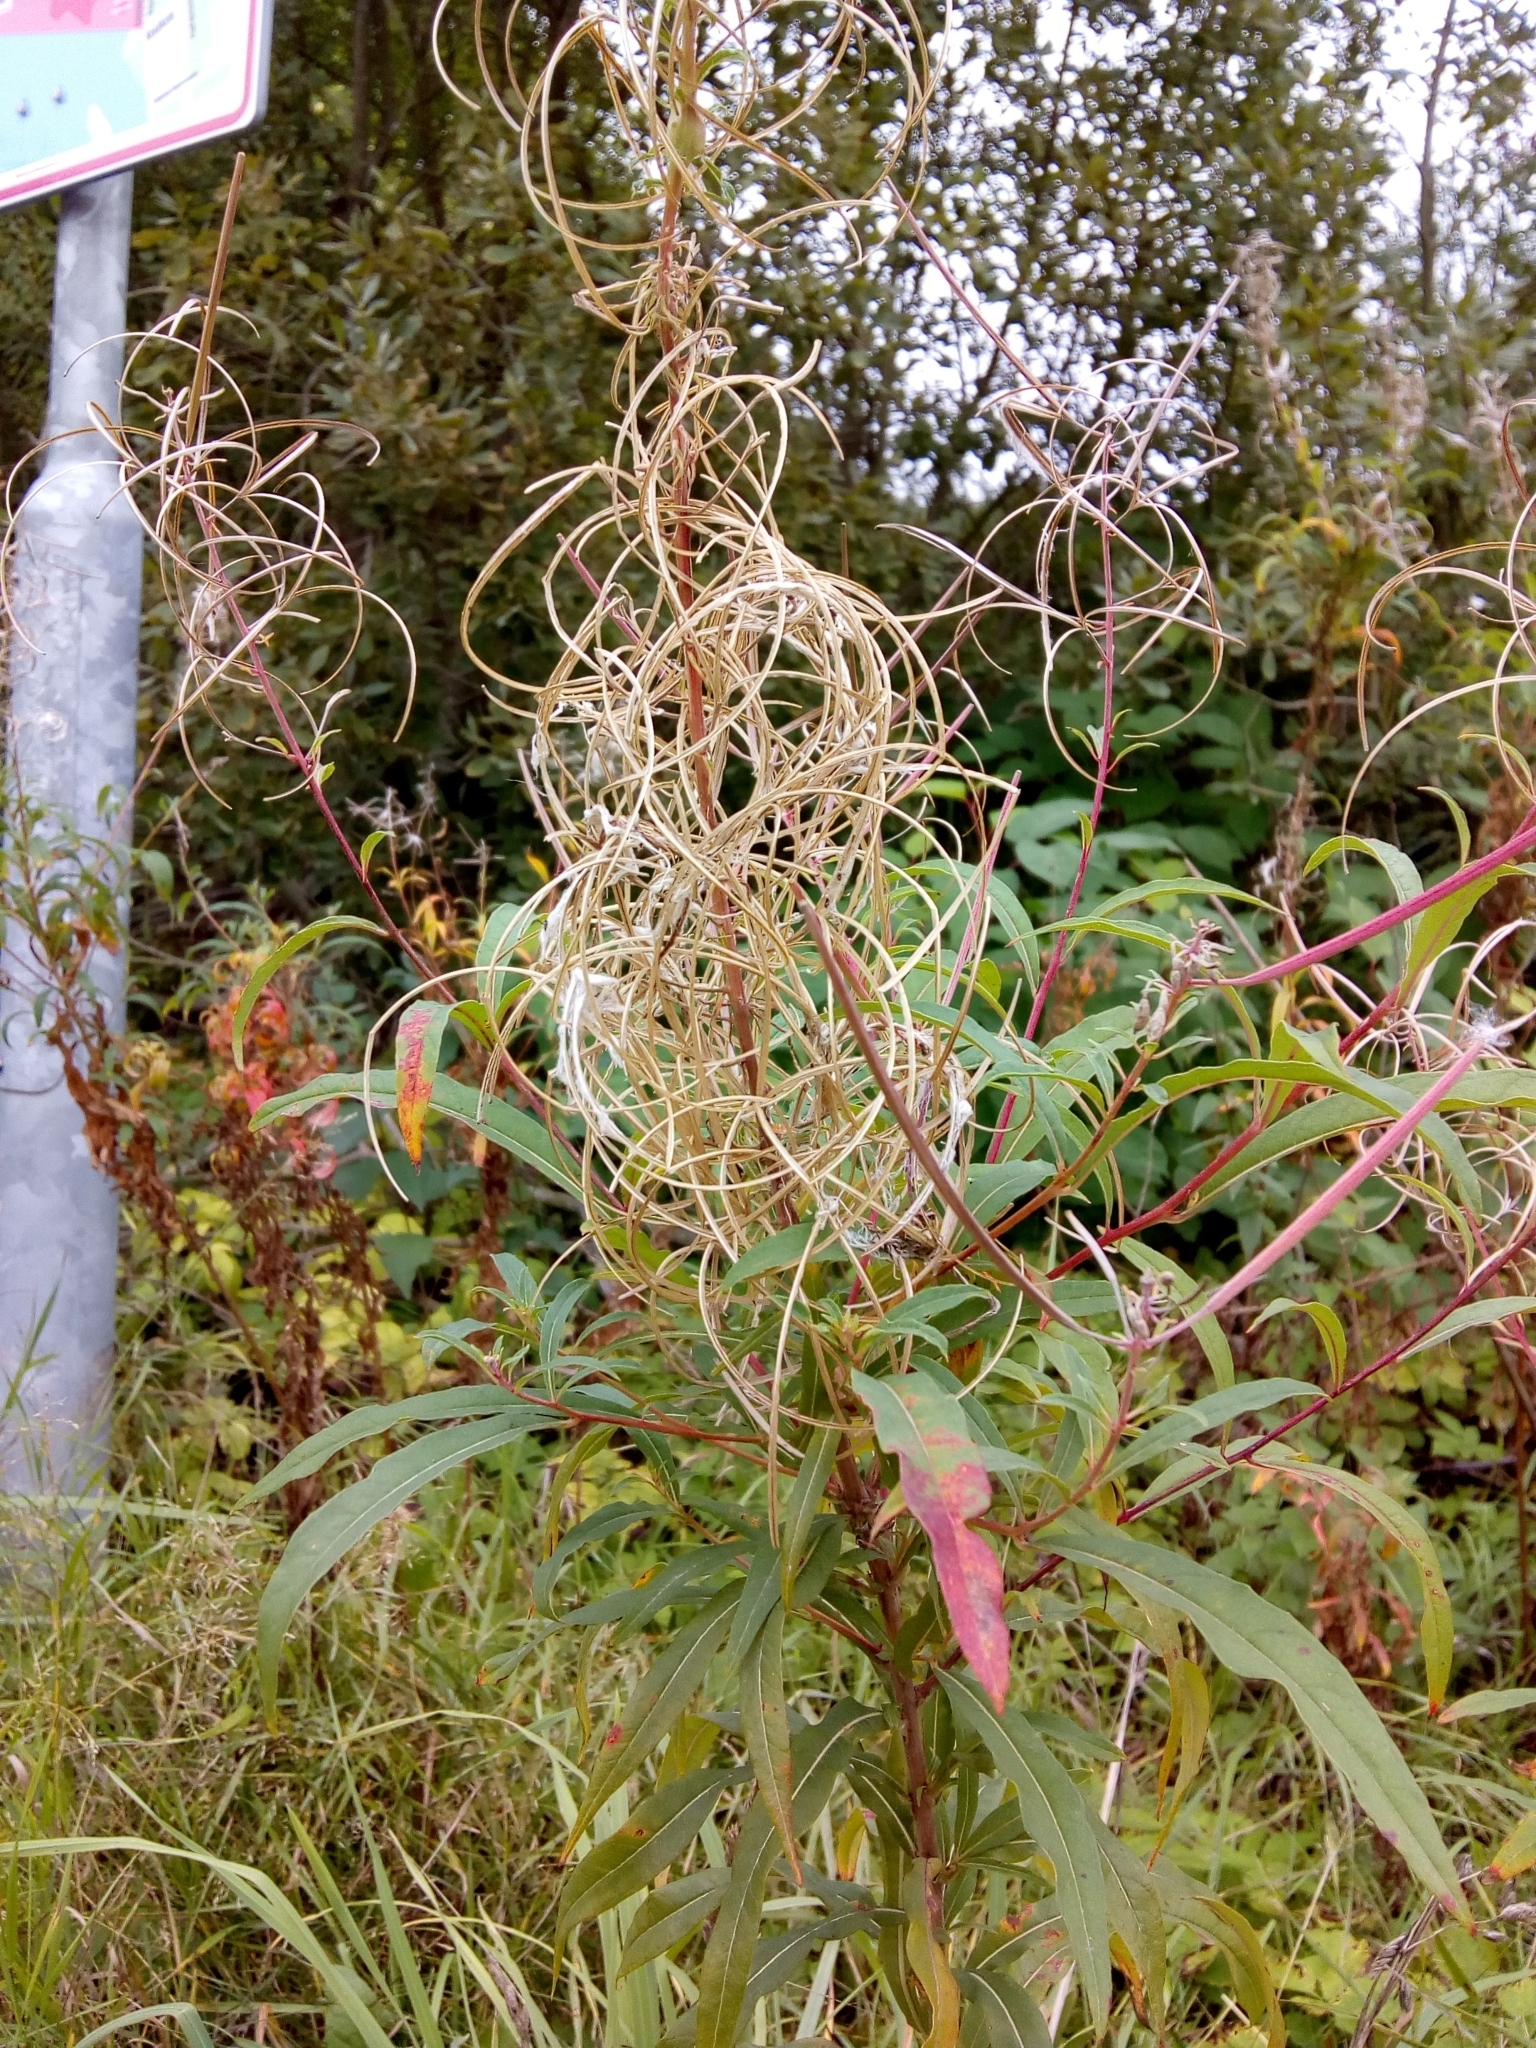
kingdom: Plantae
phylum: Tracheophyta
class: Magnoliopsida
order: Myrtales
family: Onagraceae
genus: Chamaenerion
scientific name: Chamaenerion angustifolium
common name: Fireweed
